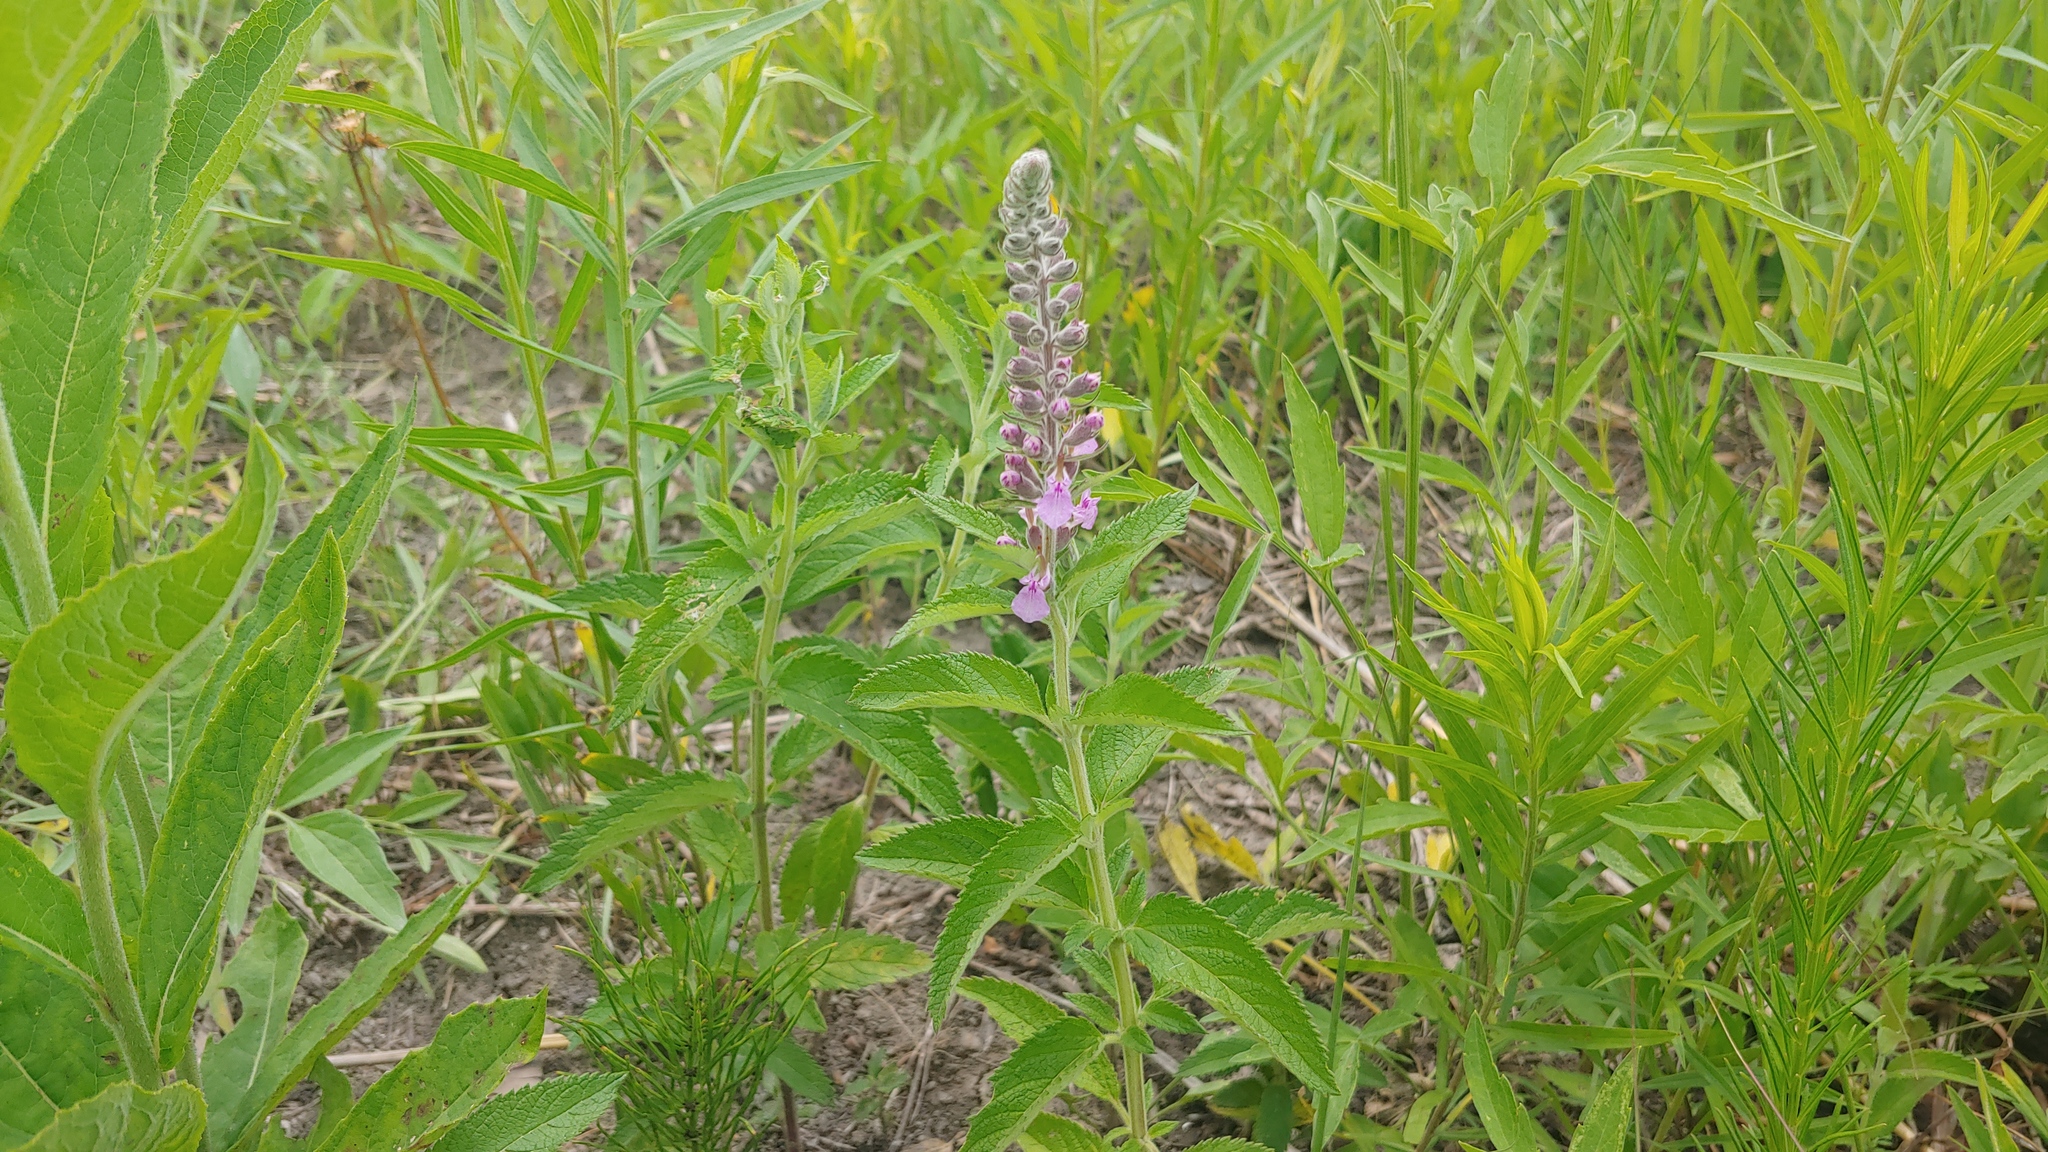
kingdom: Plantae
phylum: Tracheophyta
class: Magnoliopsida
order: Lamiales
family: Lamiaceae
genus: Teucrium
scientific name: Teucrium canadense
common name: American germander
